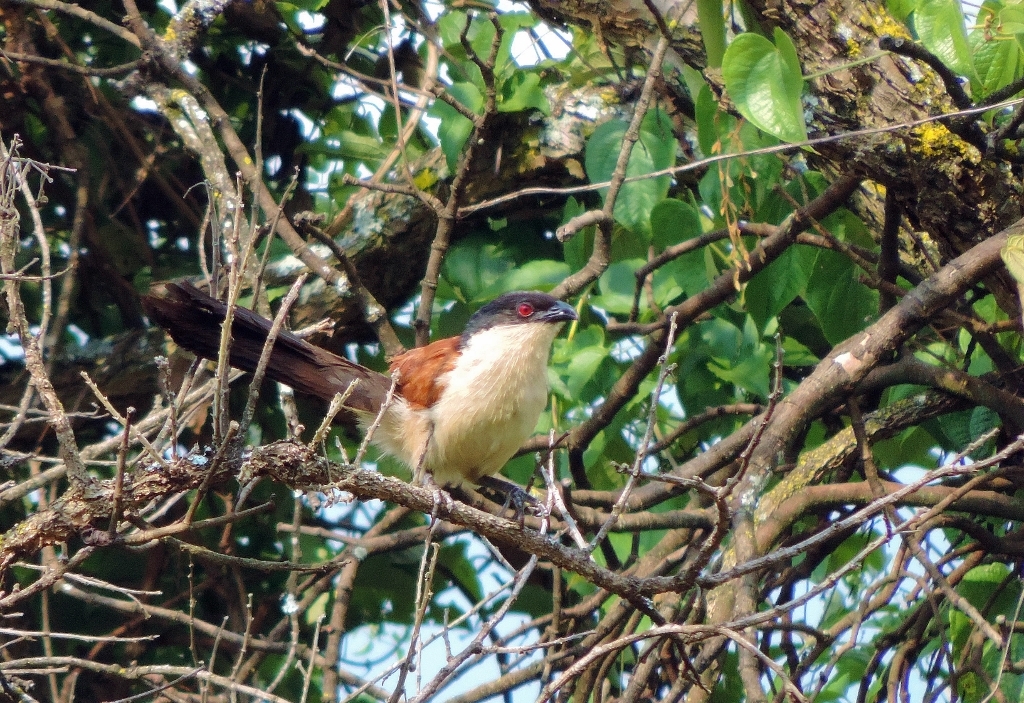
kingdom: Animalia
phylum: Chordata
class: Aves
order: Cuculiformes
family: Cuculidae
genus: Centropus
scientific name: Centropus senegalensis
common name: Senegal coucal
